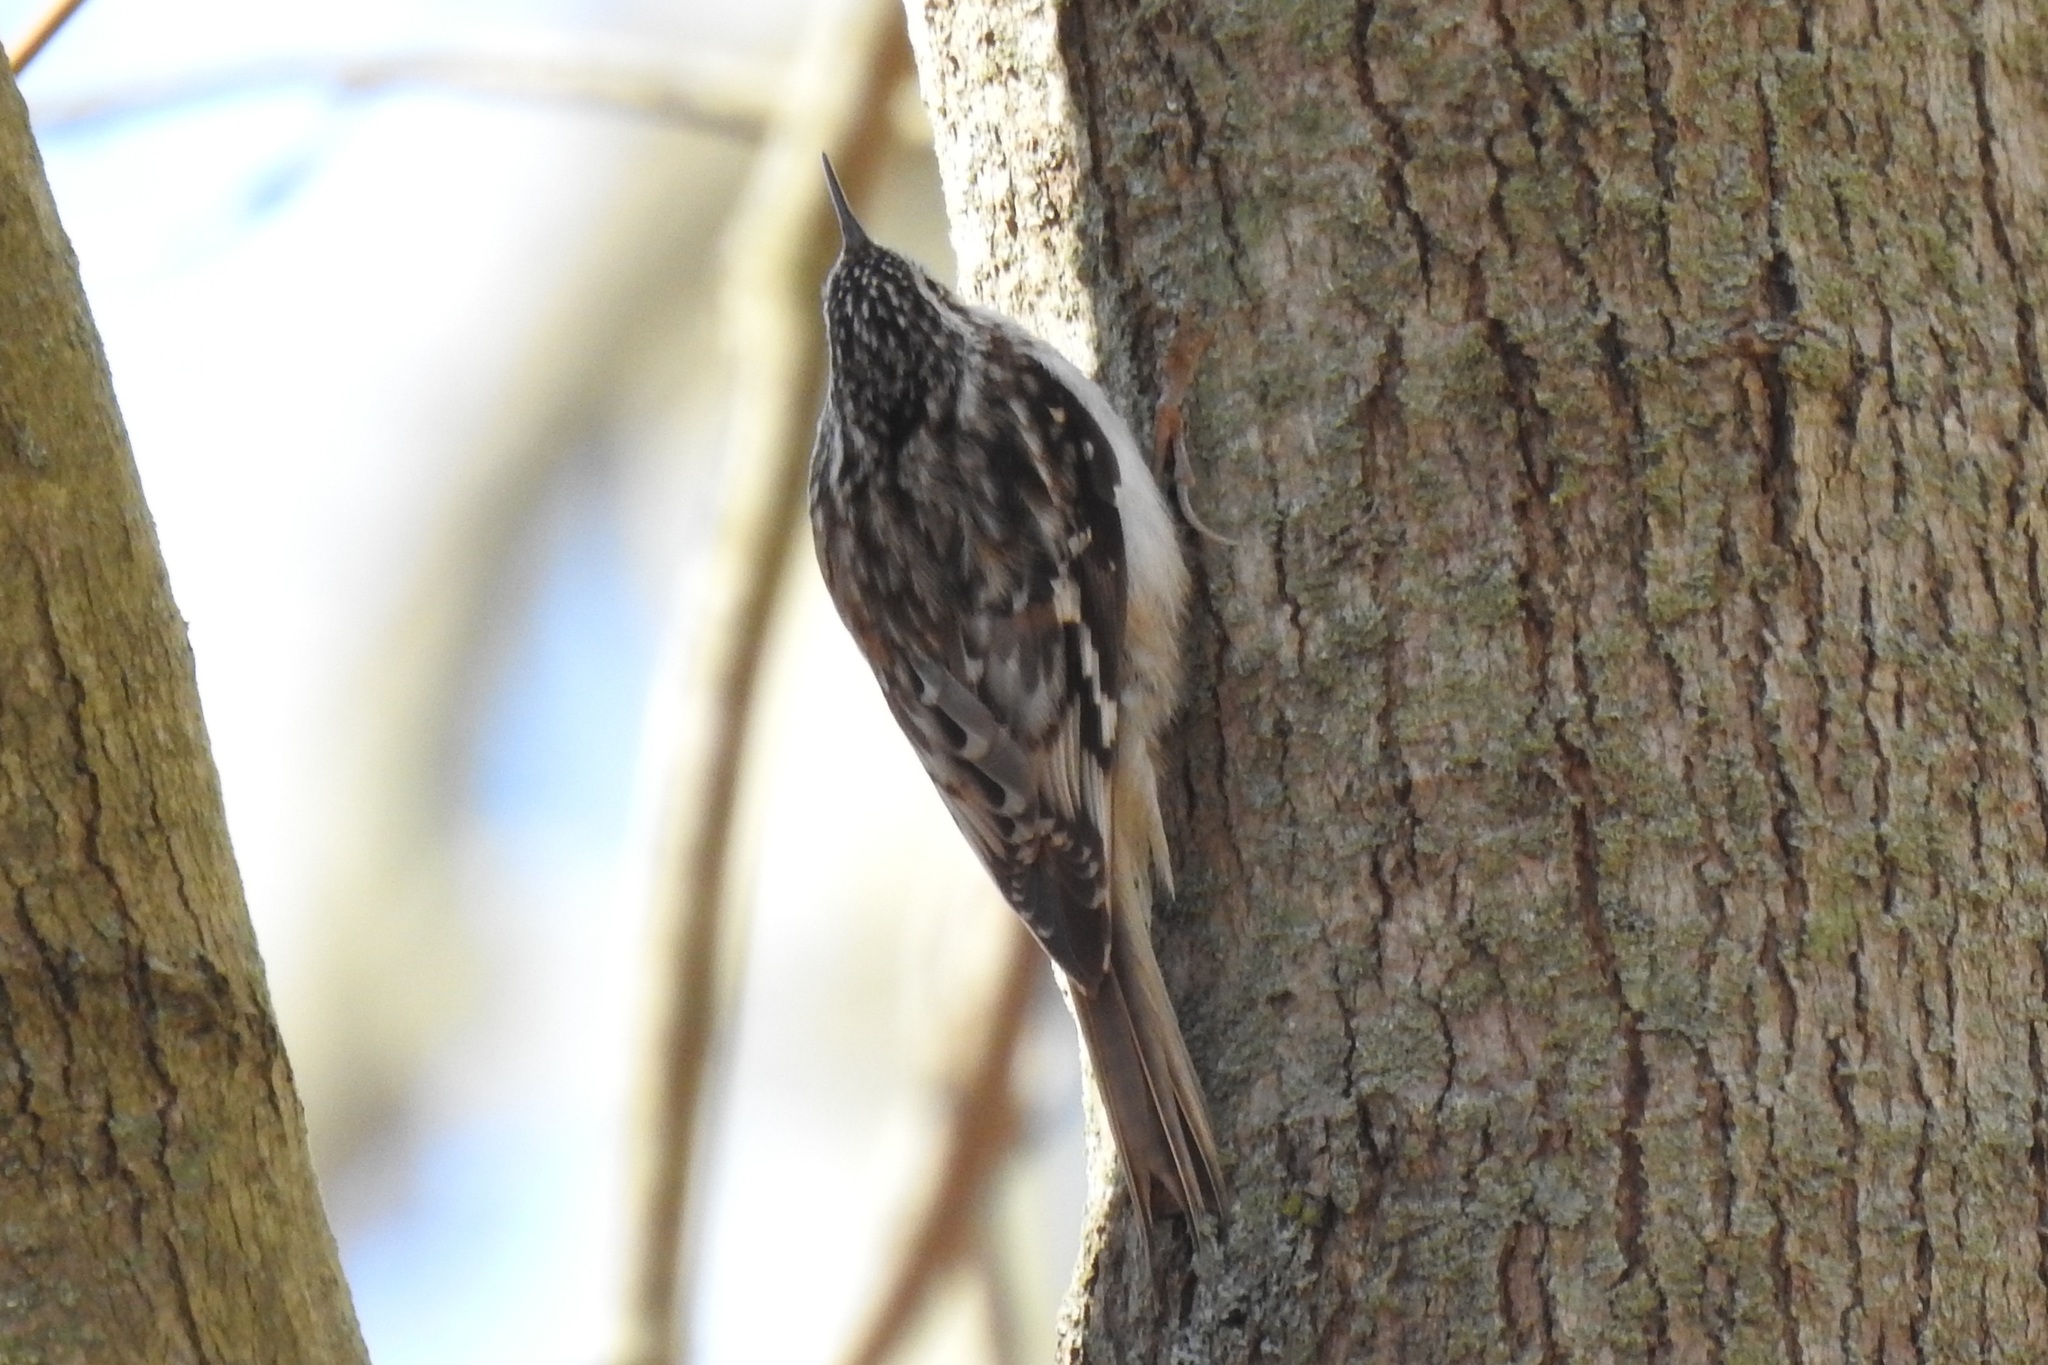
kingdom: Animalia
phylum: Chordata
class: Aves
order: Passeriformes
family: Certhiidae
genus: Certhia
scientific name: Certhia americana
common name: Brown creeper
